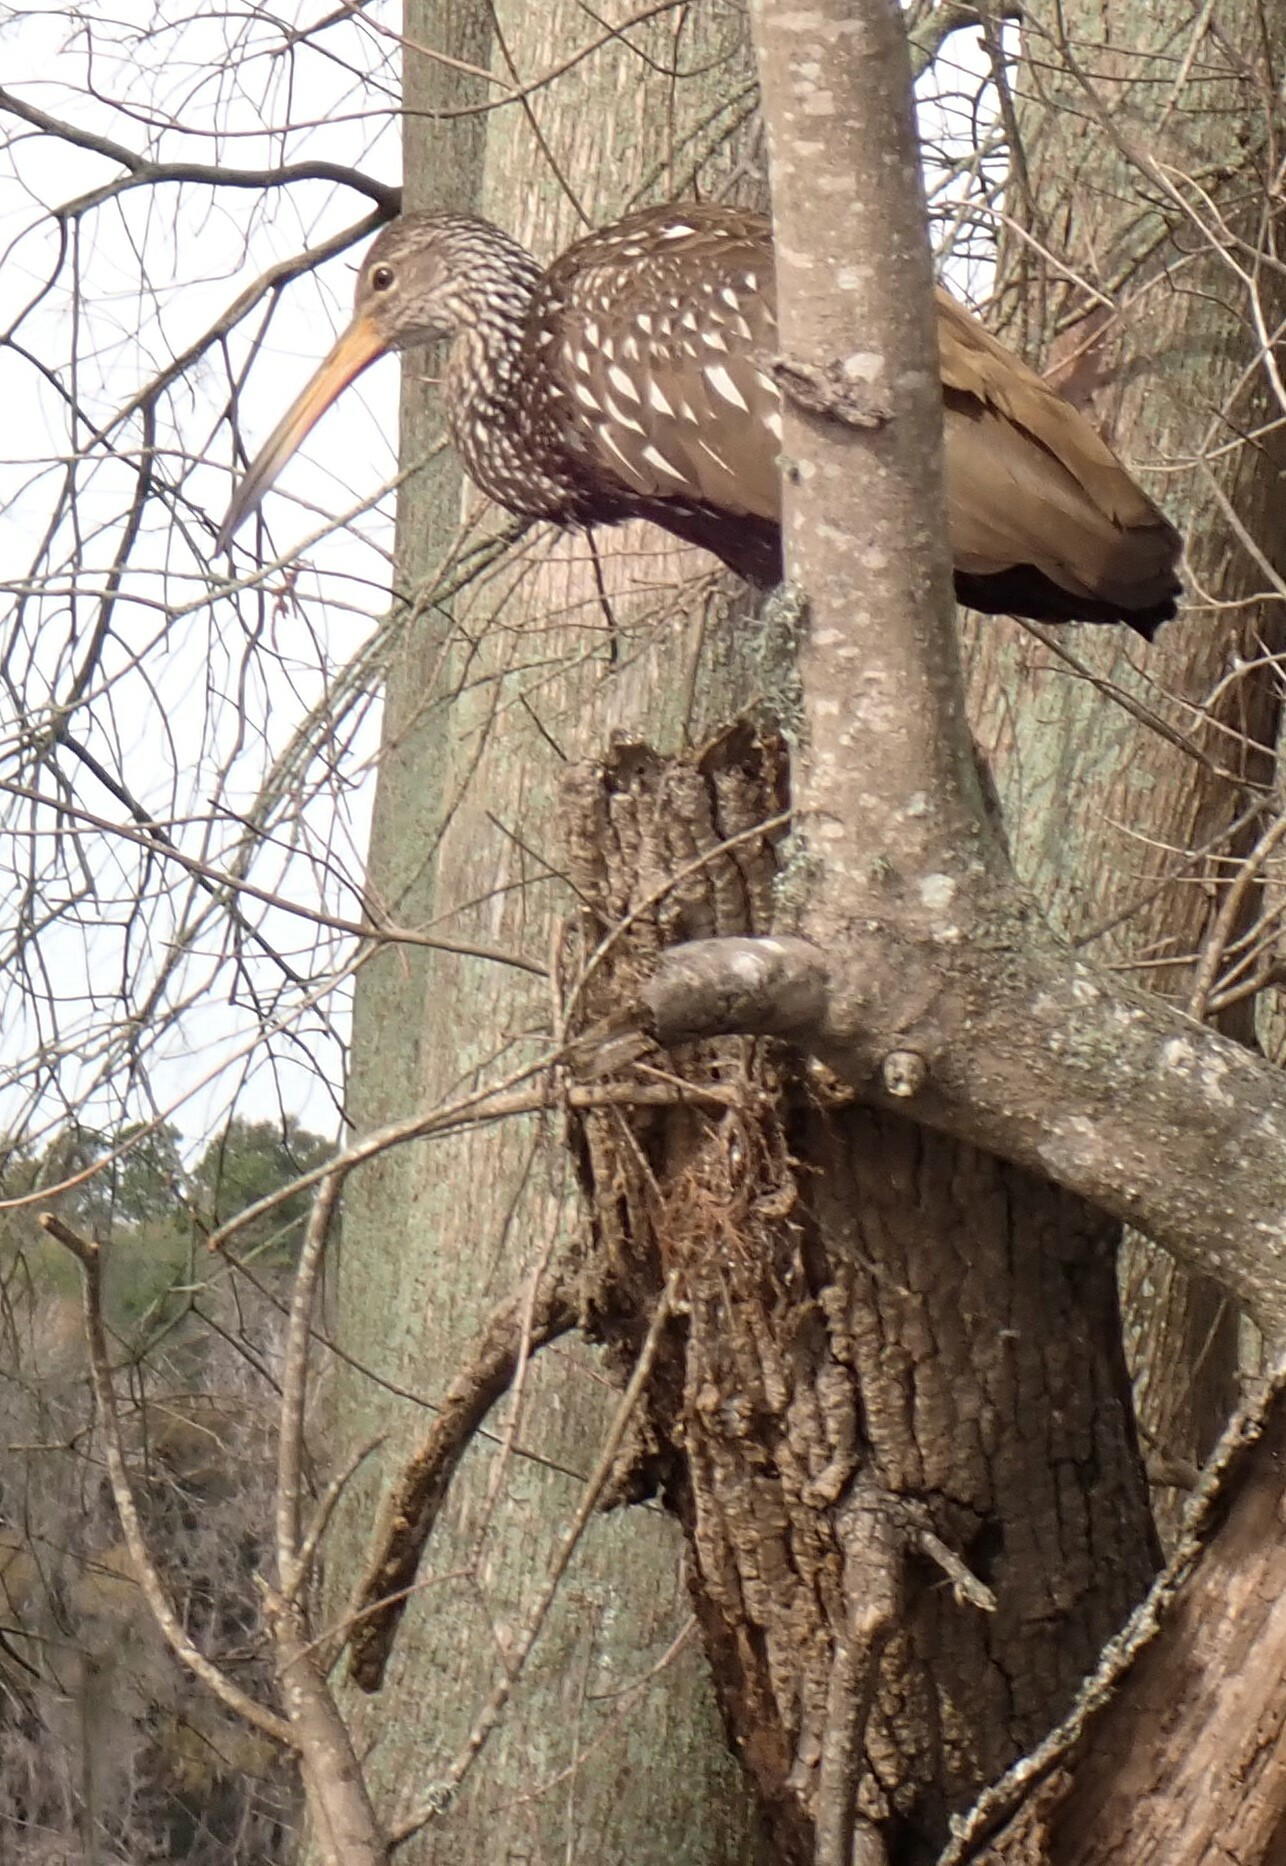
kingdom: Animalia
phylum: Chordata
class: Aves
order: Gruiformes
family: Aramidae
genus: Aramus
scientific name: Aramus guarauna
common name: Limpkin
